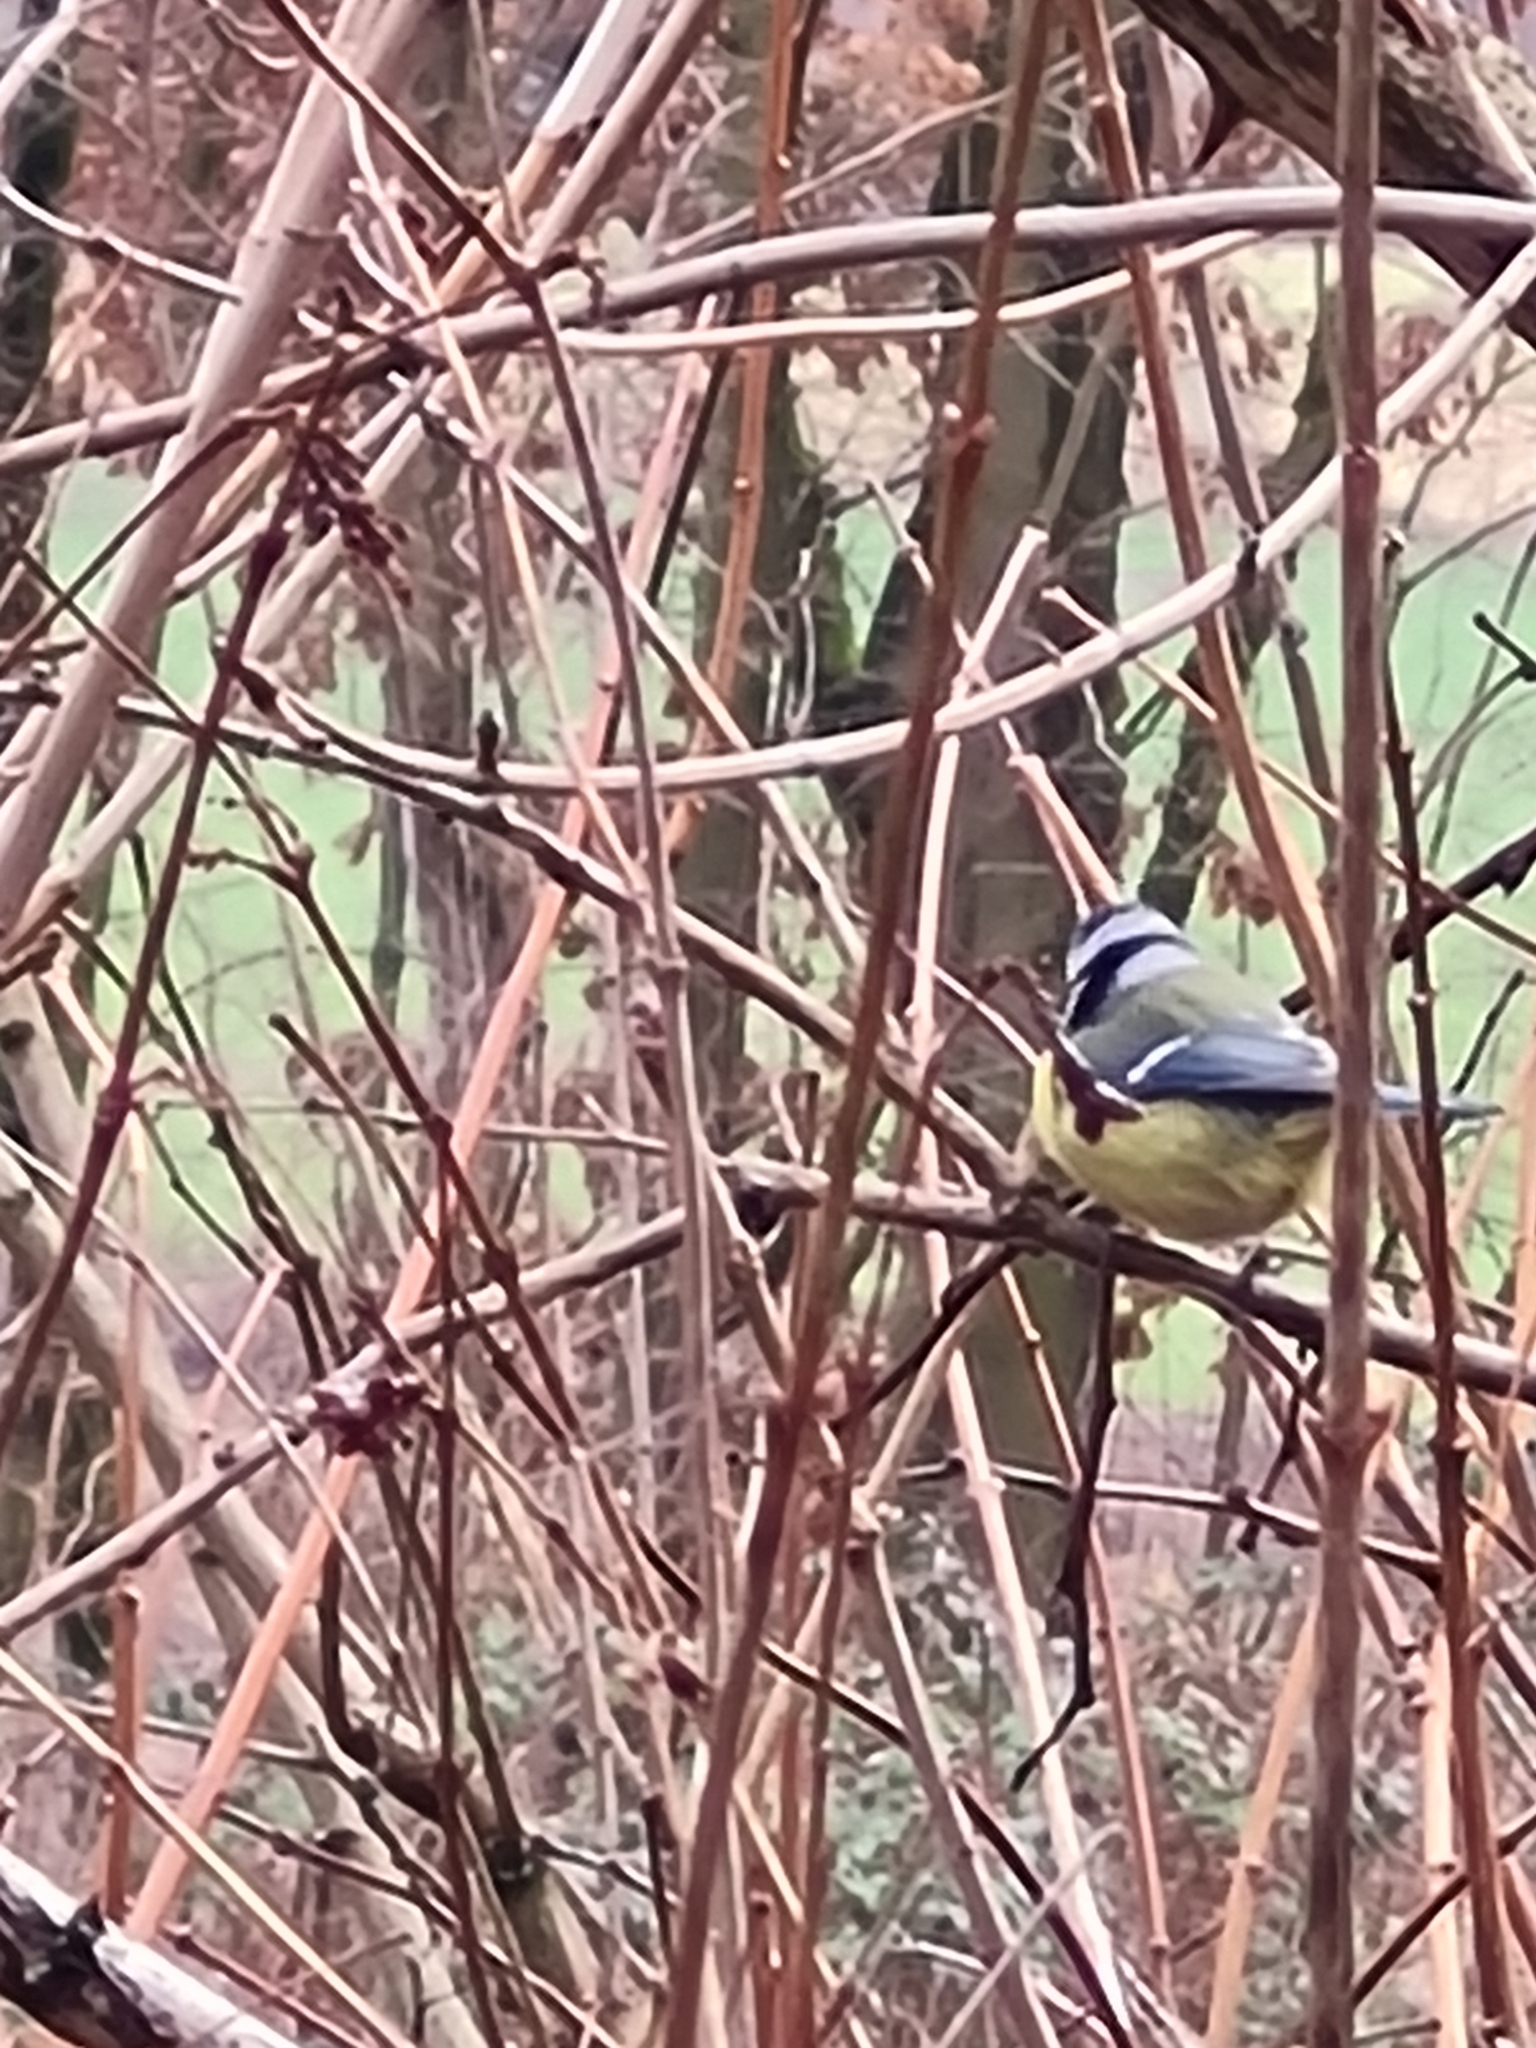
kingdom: Animalia
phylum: Chordata
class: Aves
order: Passeriformes
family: Paridae
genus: Cyanistes
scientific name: Cyanistes caeruleus
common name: Eurasian blue tit
